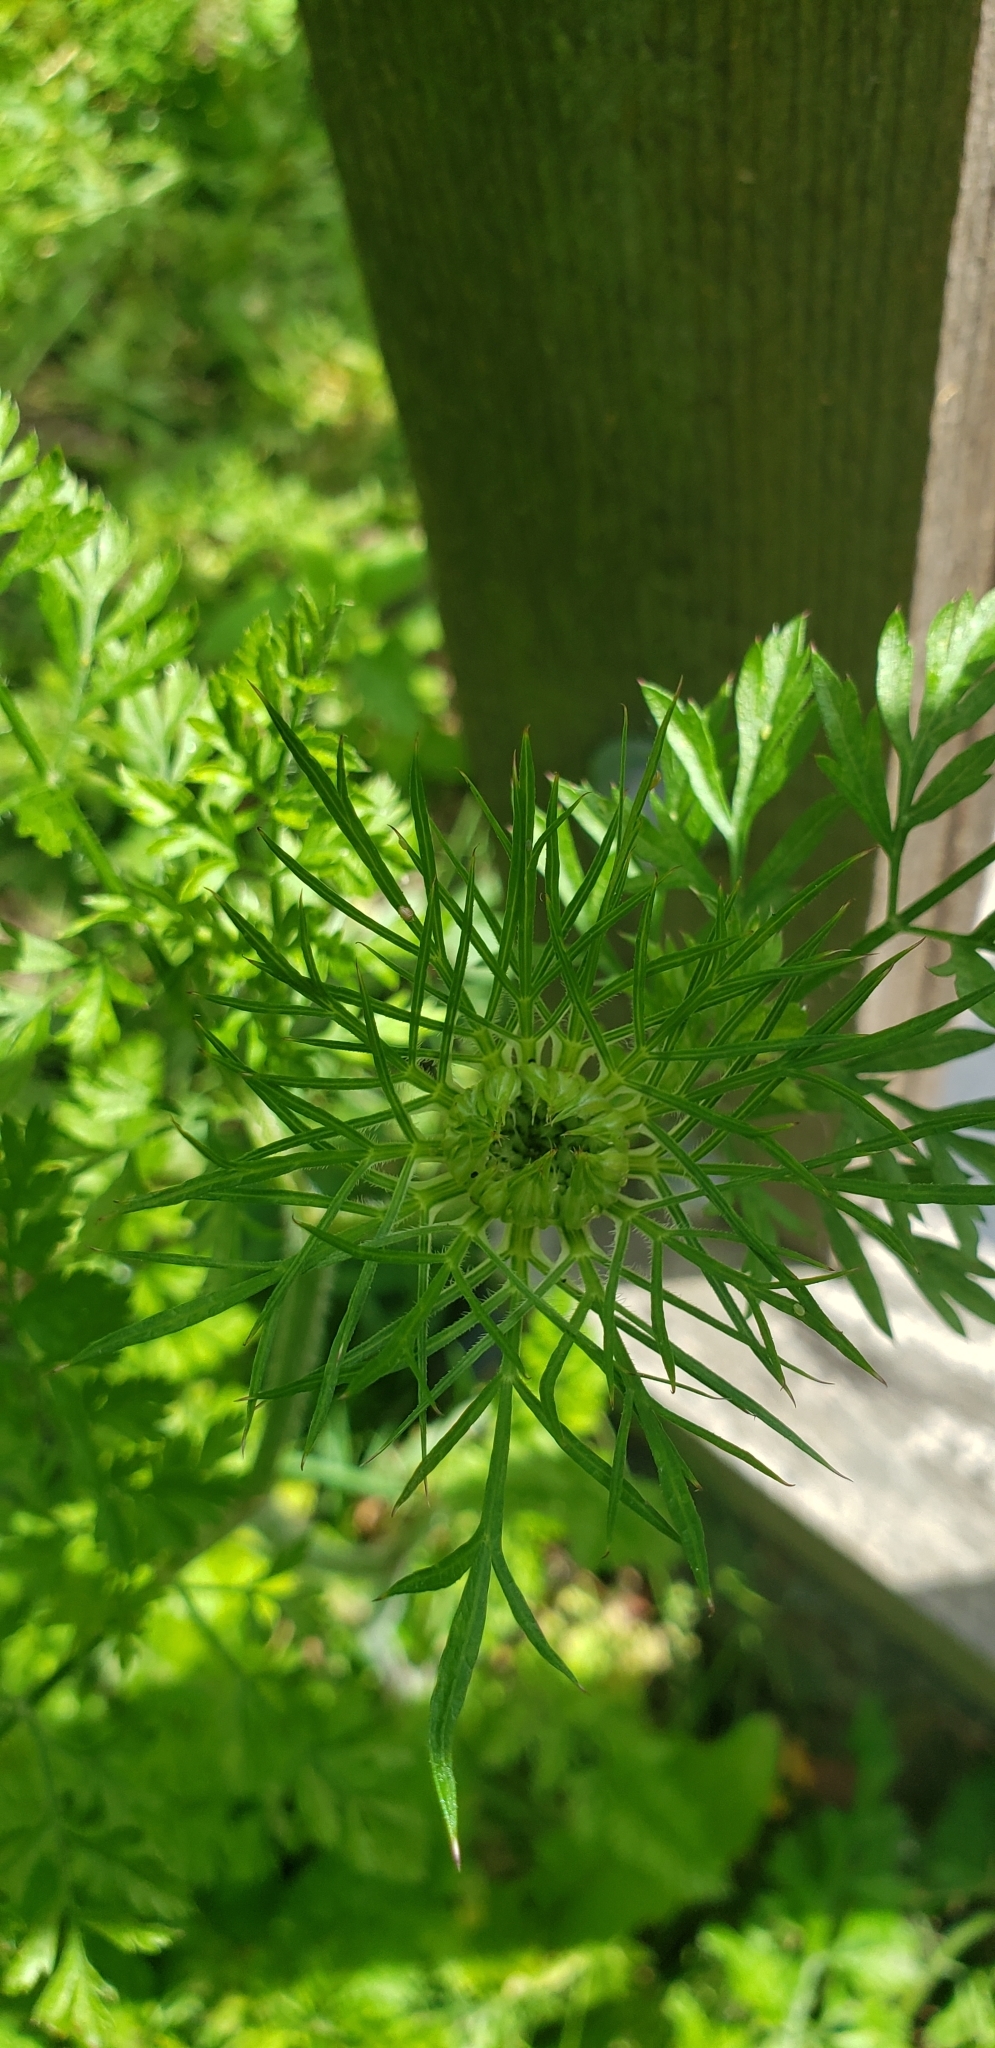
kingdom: Plantae
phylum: Tracheophyta
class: Magnoliopsida
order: Apiales
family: Apiaceae
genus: Daucus
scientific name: Daucus carota
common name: Wild carrot
